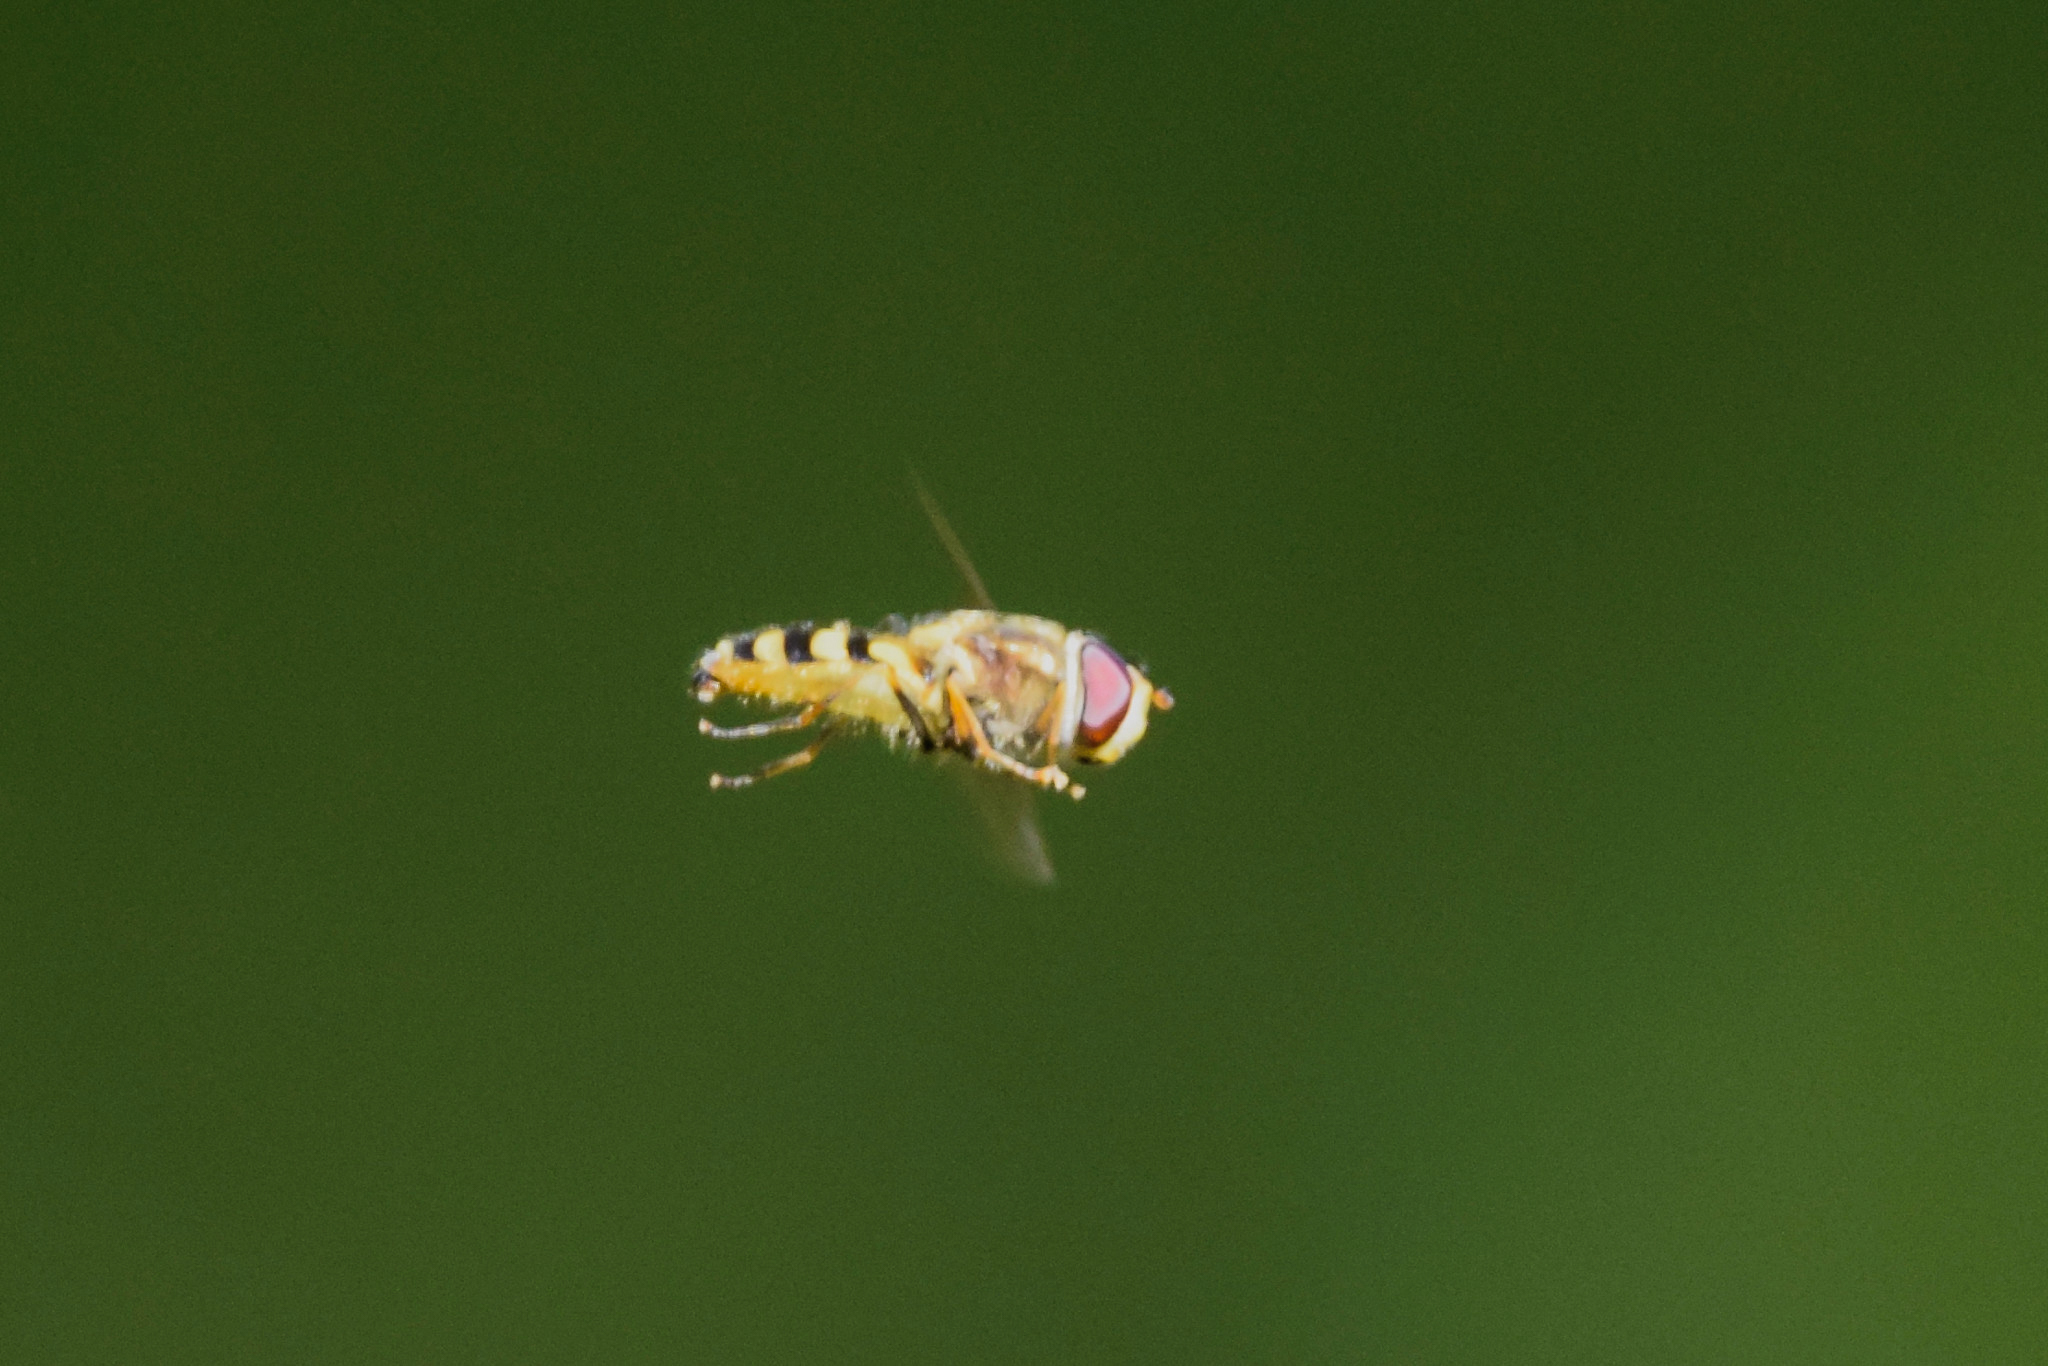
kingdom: Animalia
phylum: Arthropoda
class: Insecta
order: Diptera
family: Syrphidae
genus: Syrphus
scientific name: Syrphus
